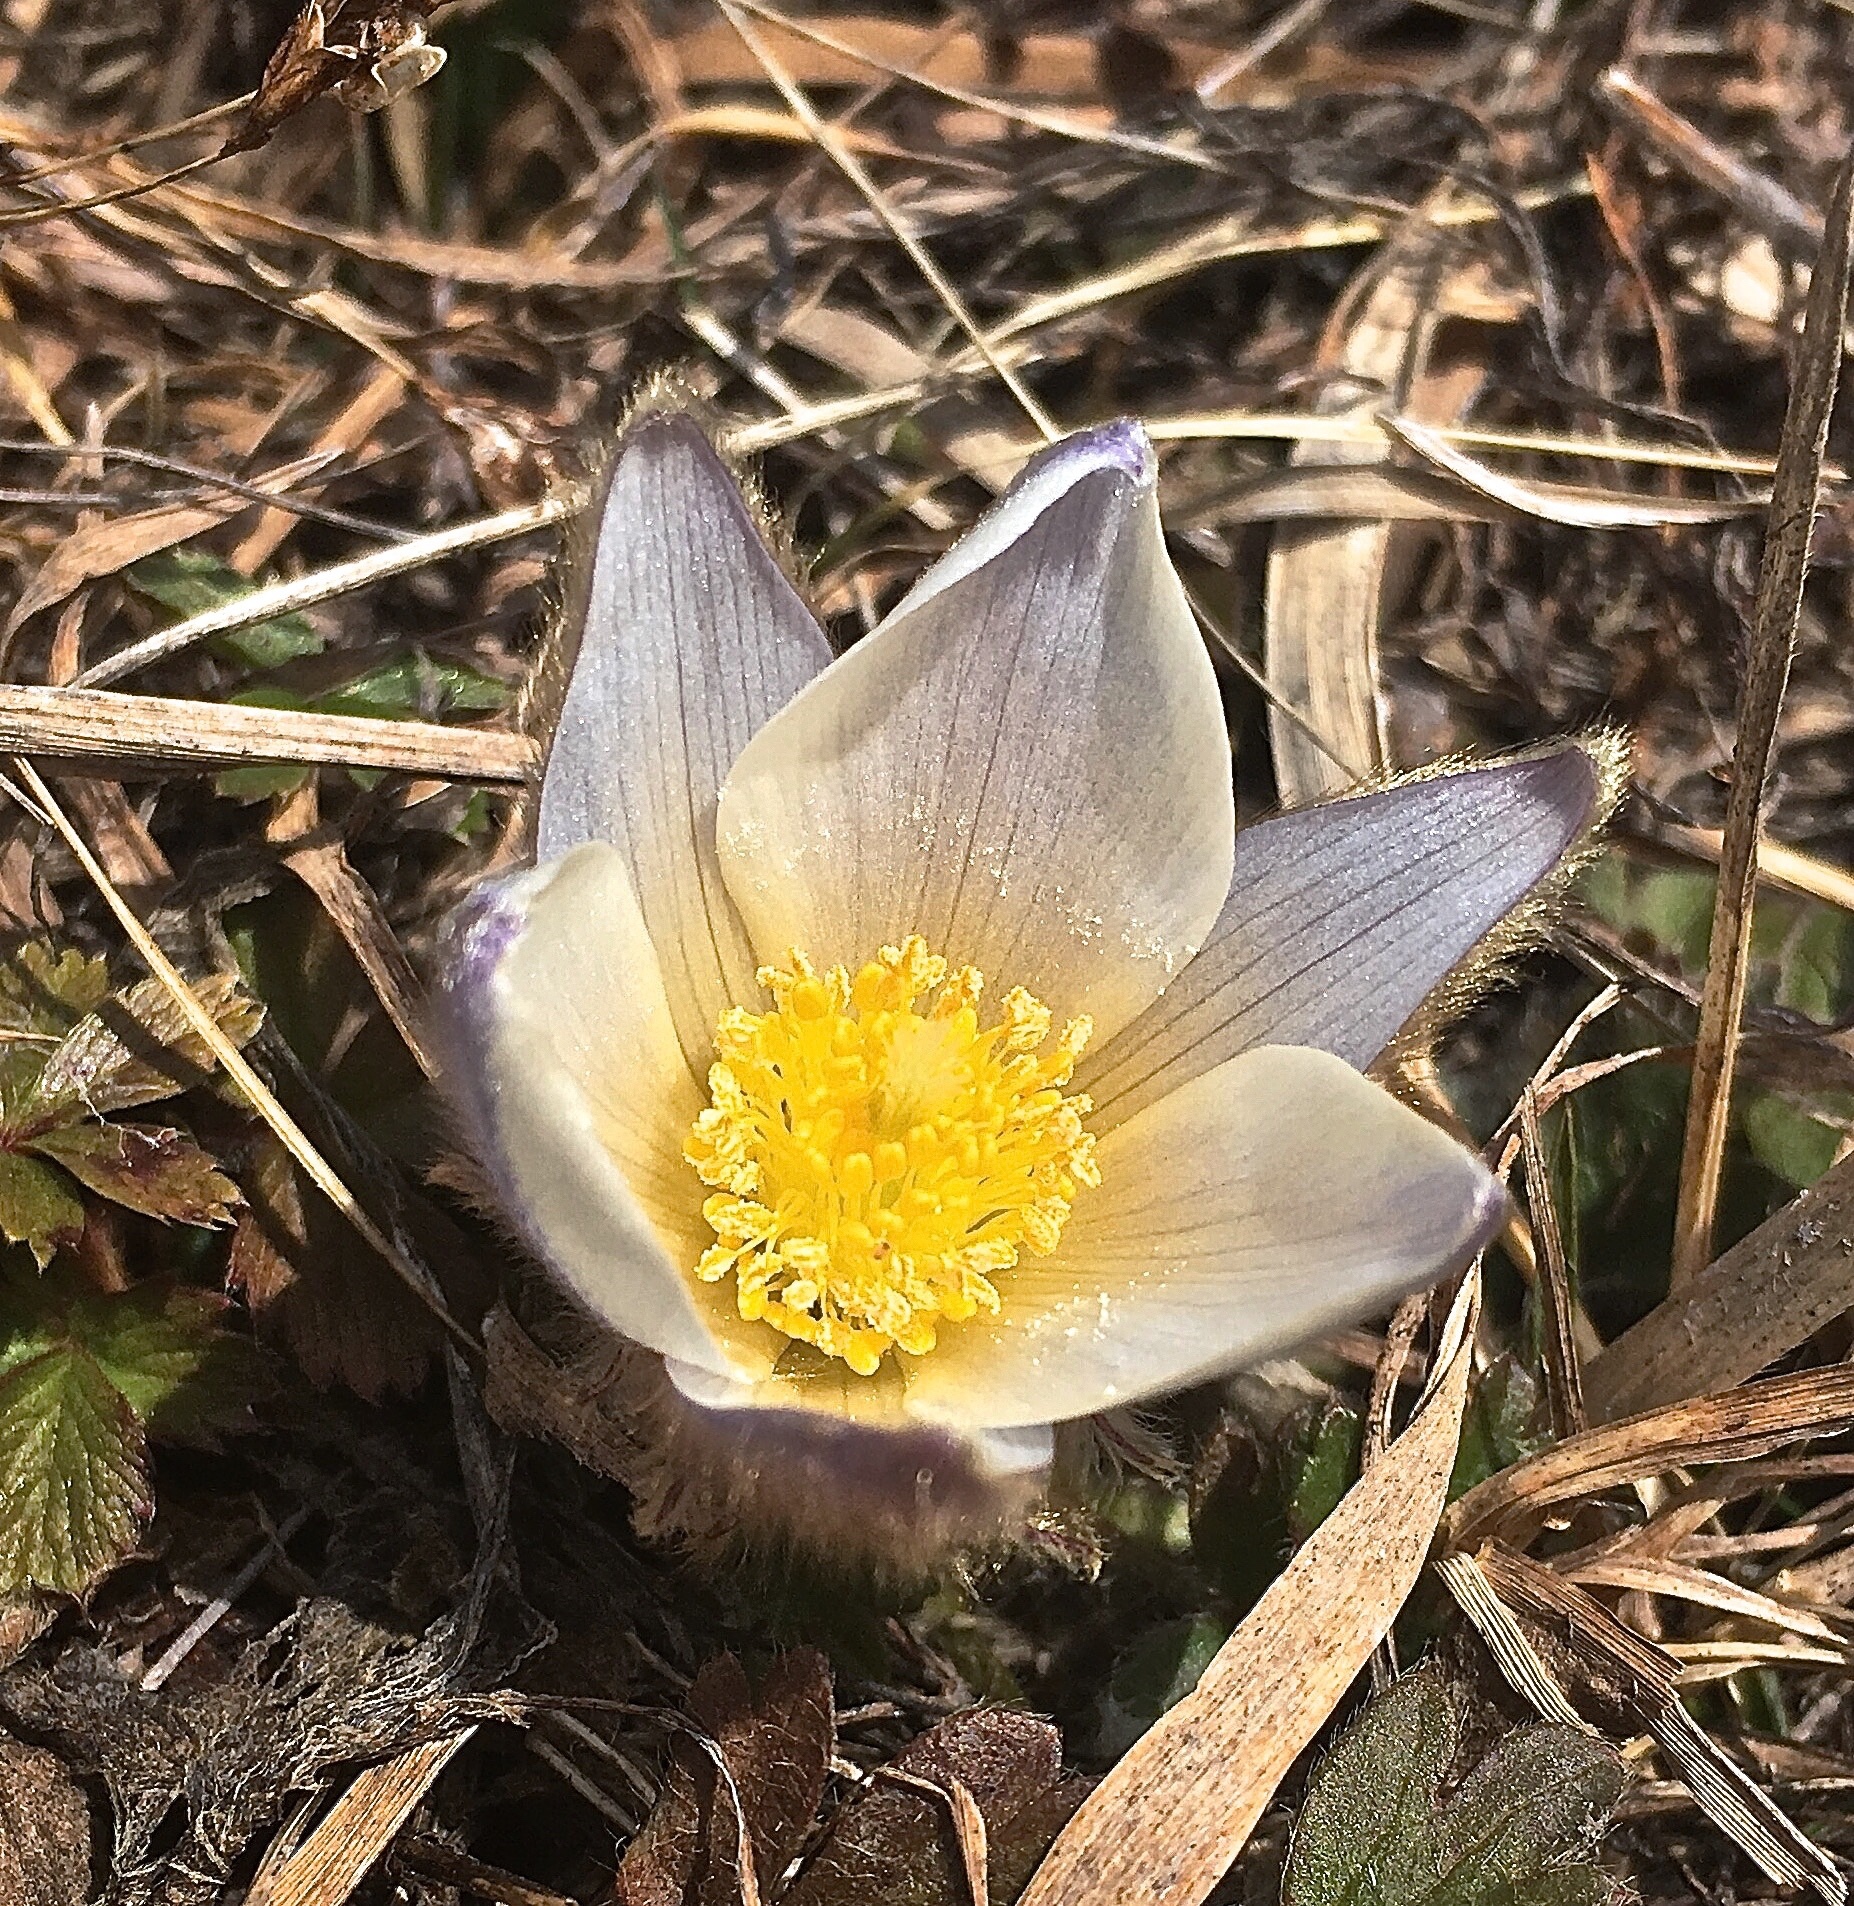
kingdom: Plantae
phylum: Tracheophyta
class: Magnoliopsida
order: Ranunculales
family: Ranunculaceae
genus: Pulsatilla
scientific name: Pulsatilla vernalis
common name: Spring pasque flower
